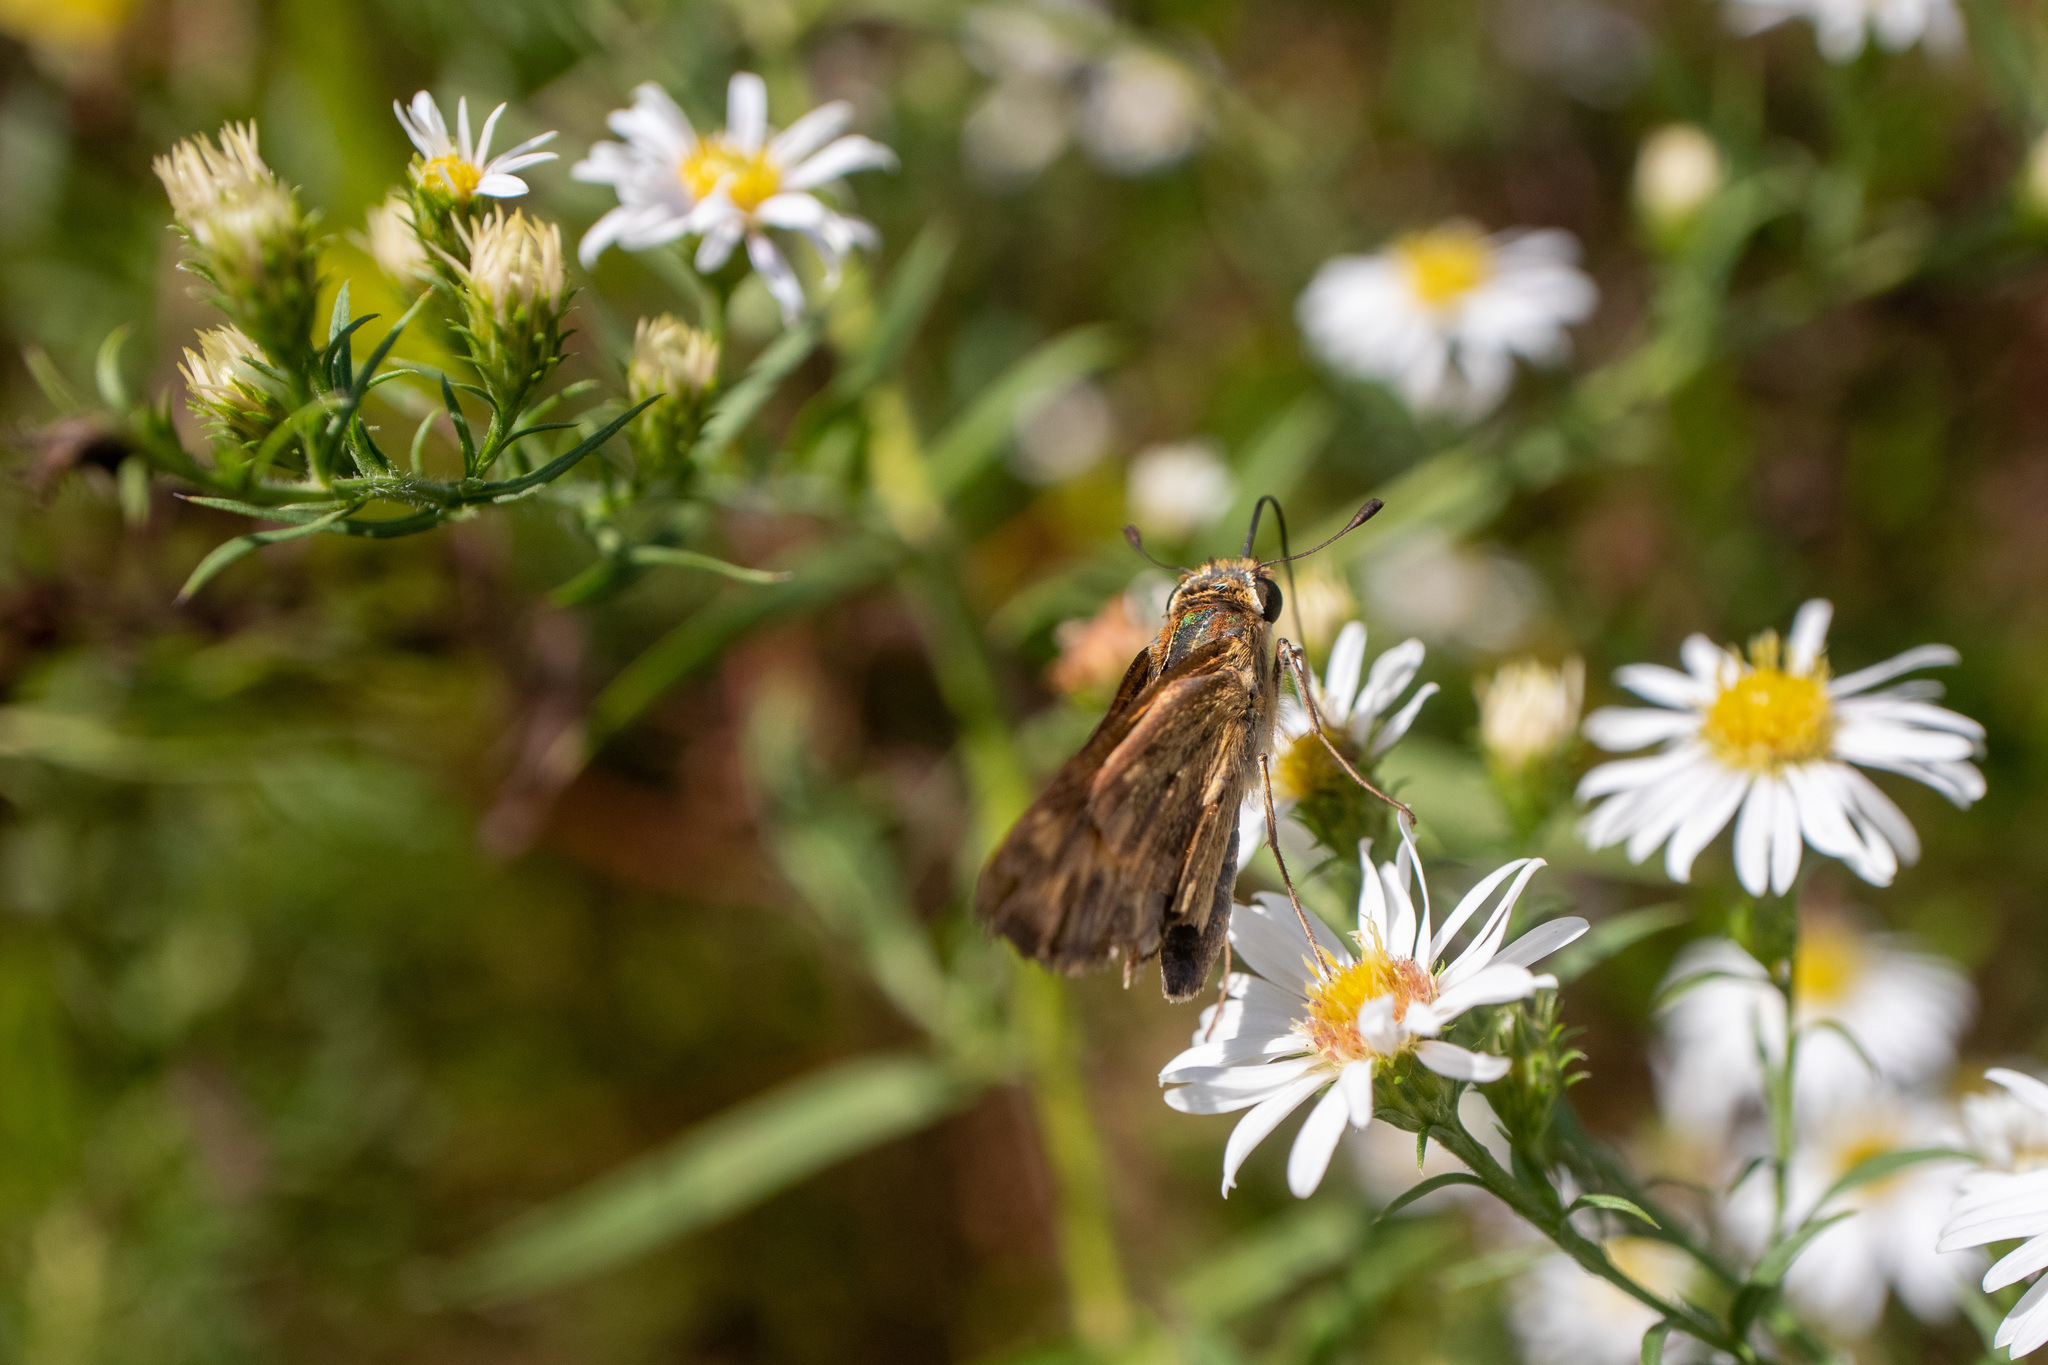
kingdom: Animalia
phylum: Arthropoda
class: Insecta
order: Lepidoptera
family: Hesperiidae
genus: Hylephila
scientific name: Hylephila phyleus
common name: Fiery skipper
